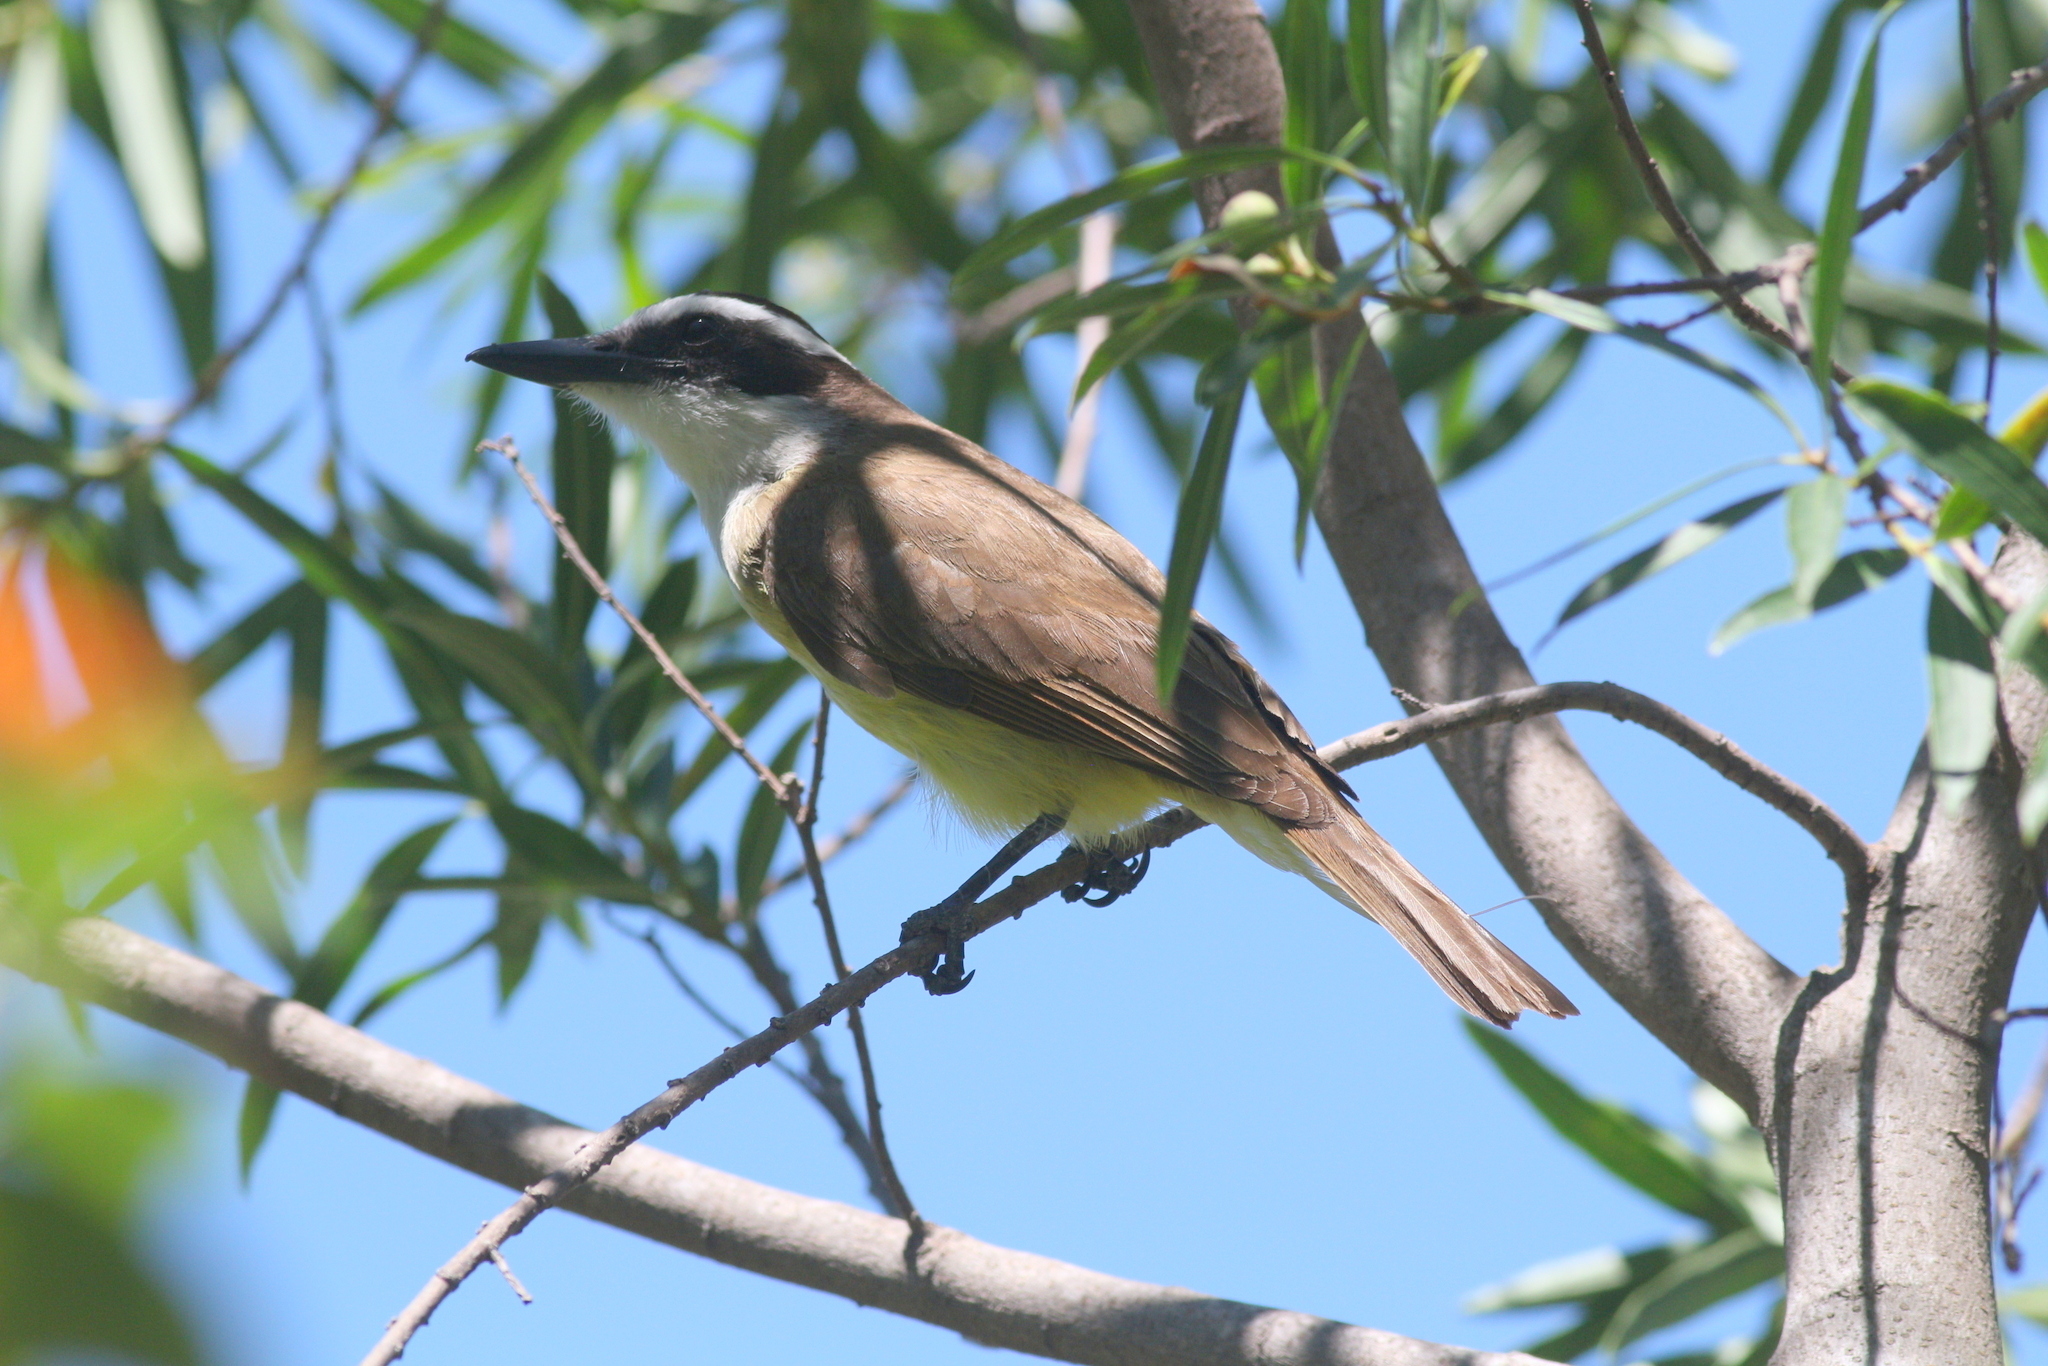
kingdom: Animalia
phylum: Chordata
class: Aves
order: Passeriformes
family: Tyrannidae
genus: Pitangus
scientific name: Pitangus sulphuratus
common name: Great kiskadee
